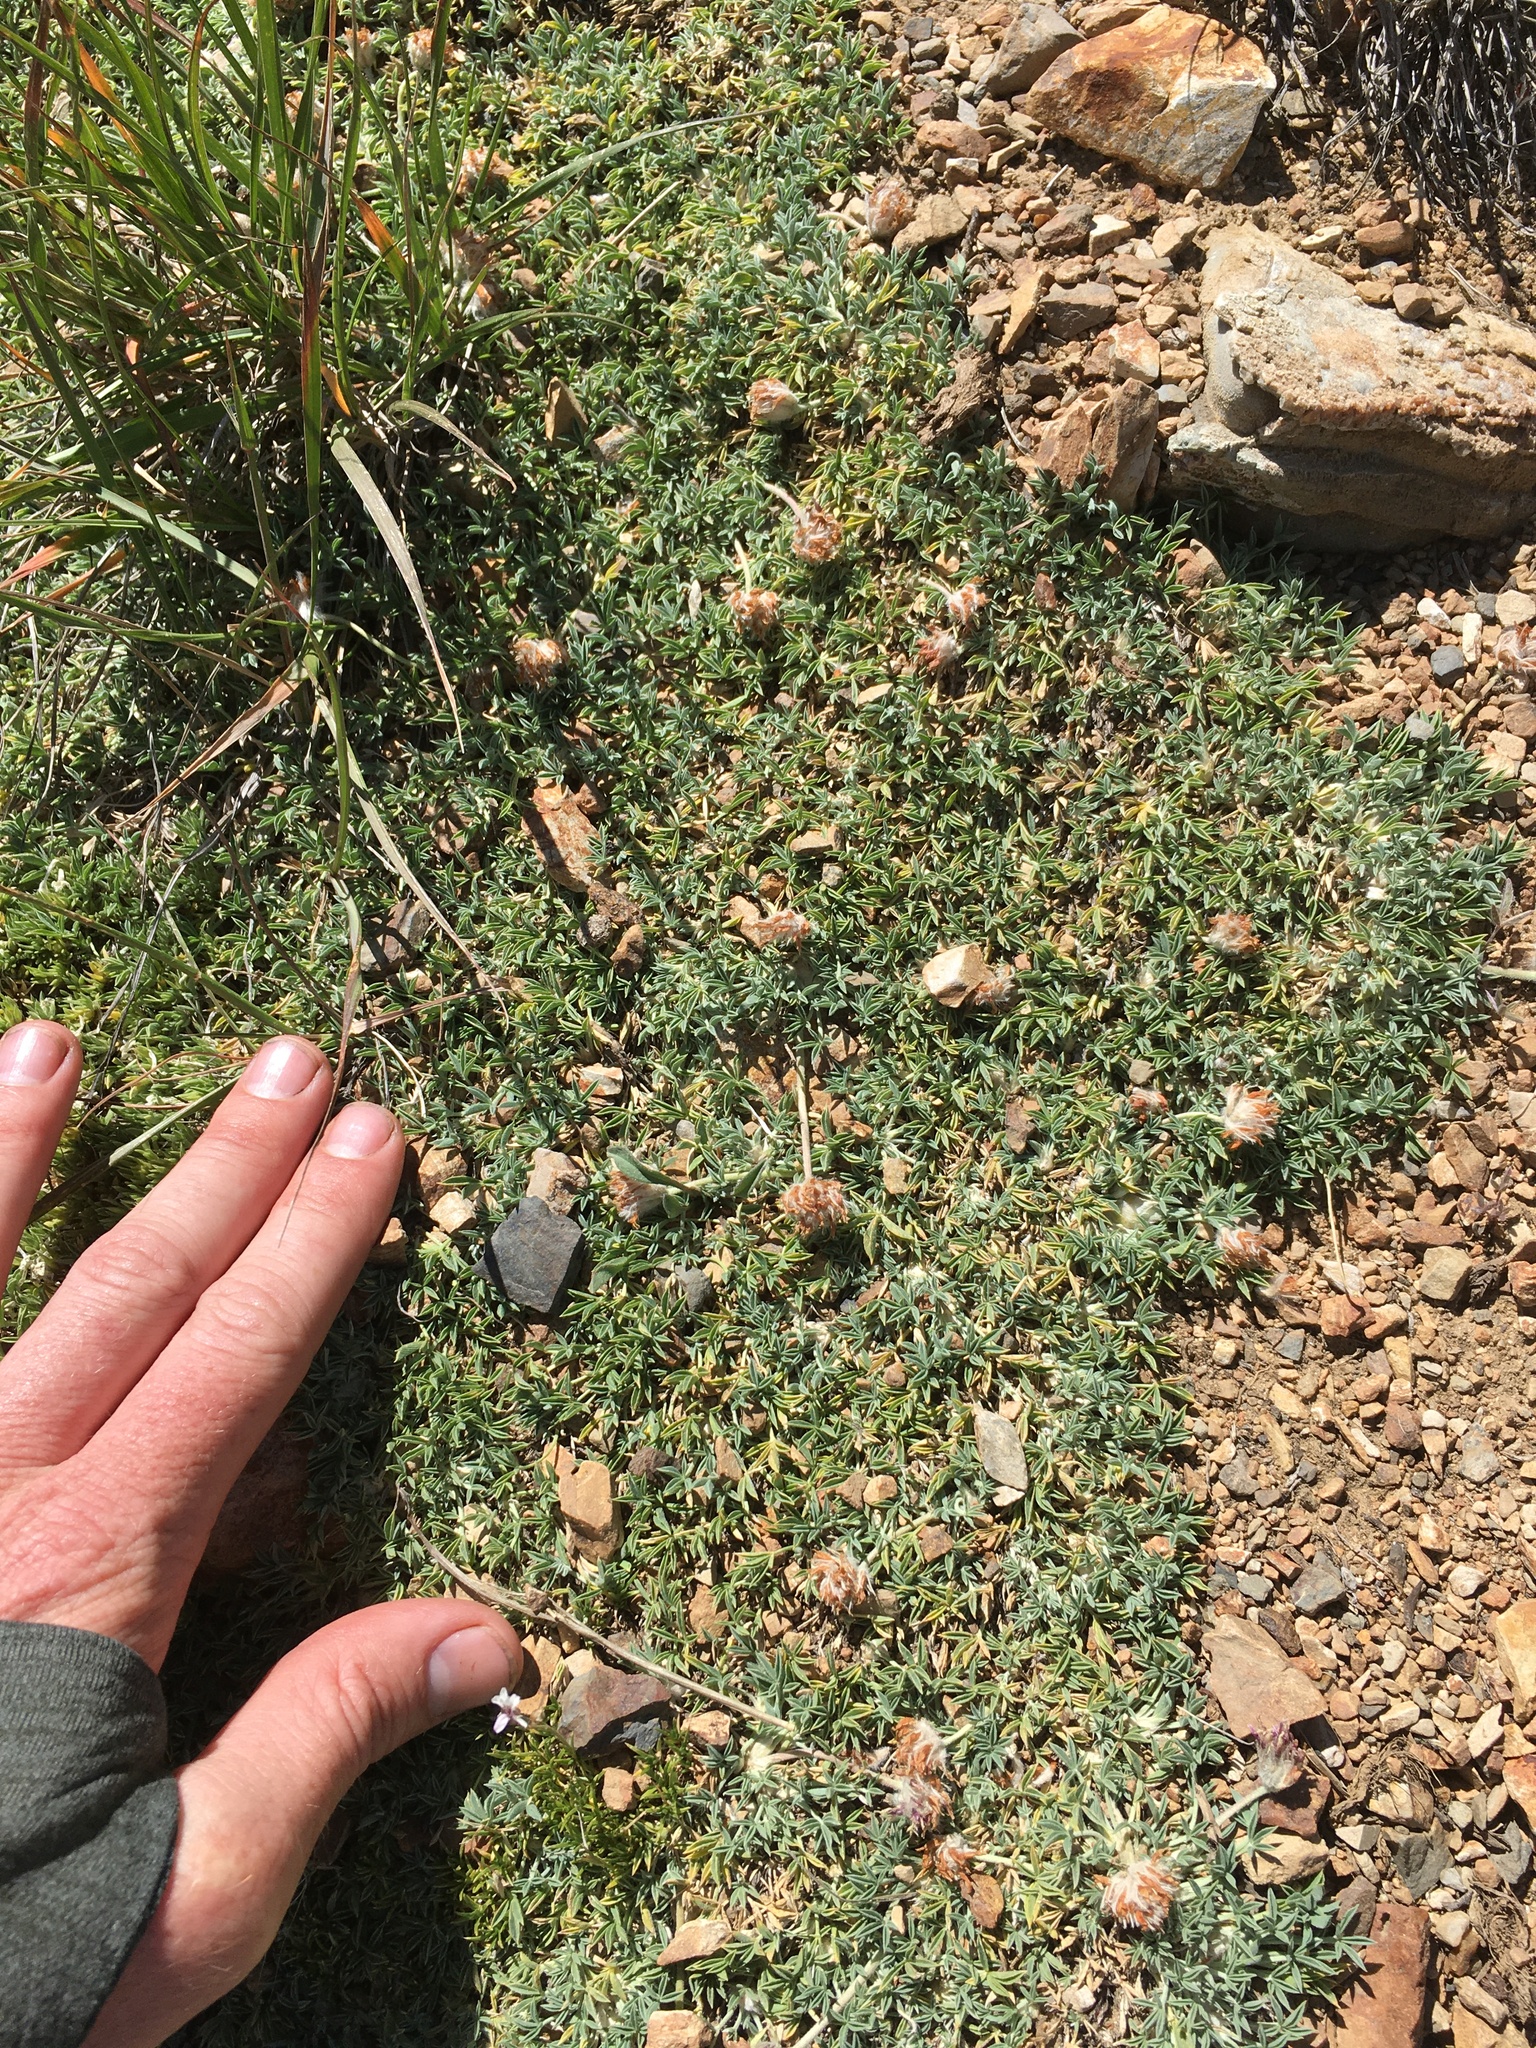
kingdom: Plantae
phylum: Tracheophyta
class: Magnoliopsida
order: Fabales
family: Fabaceae
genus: Trifolium
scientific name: Trifolium andersonii
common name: Anderson's clover
